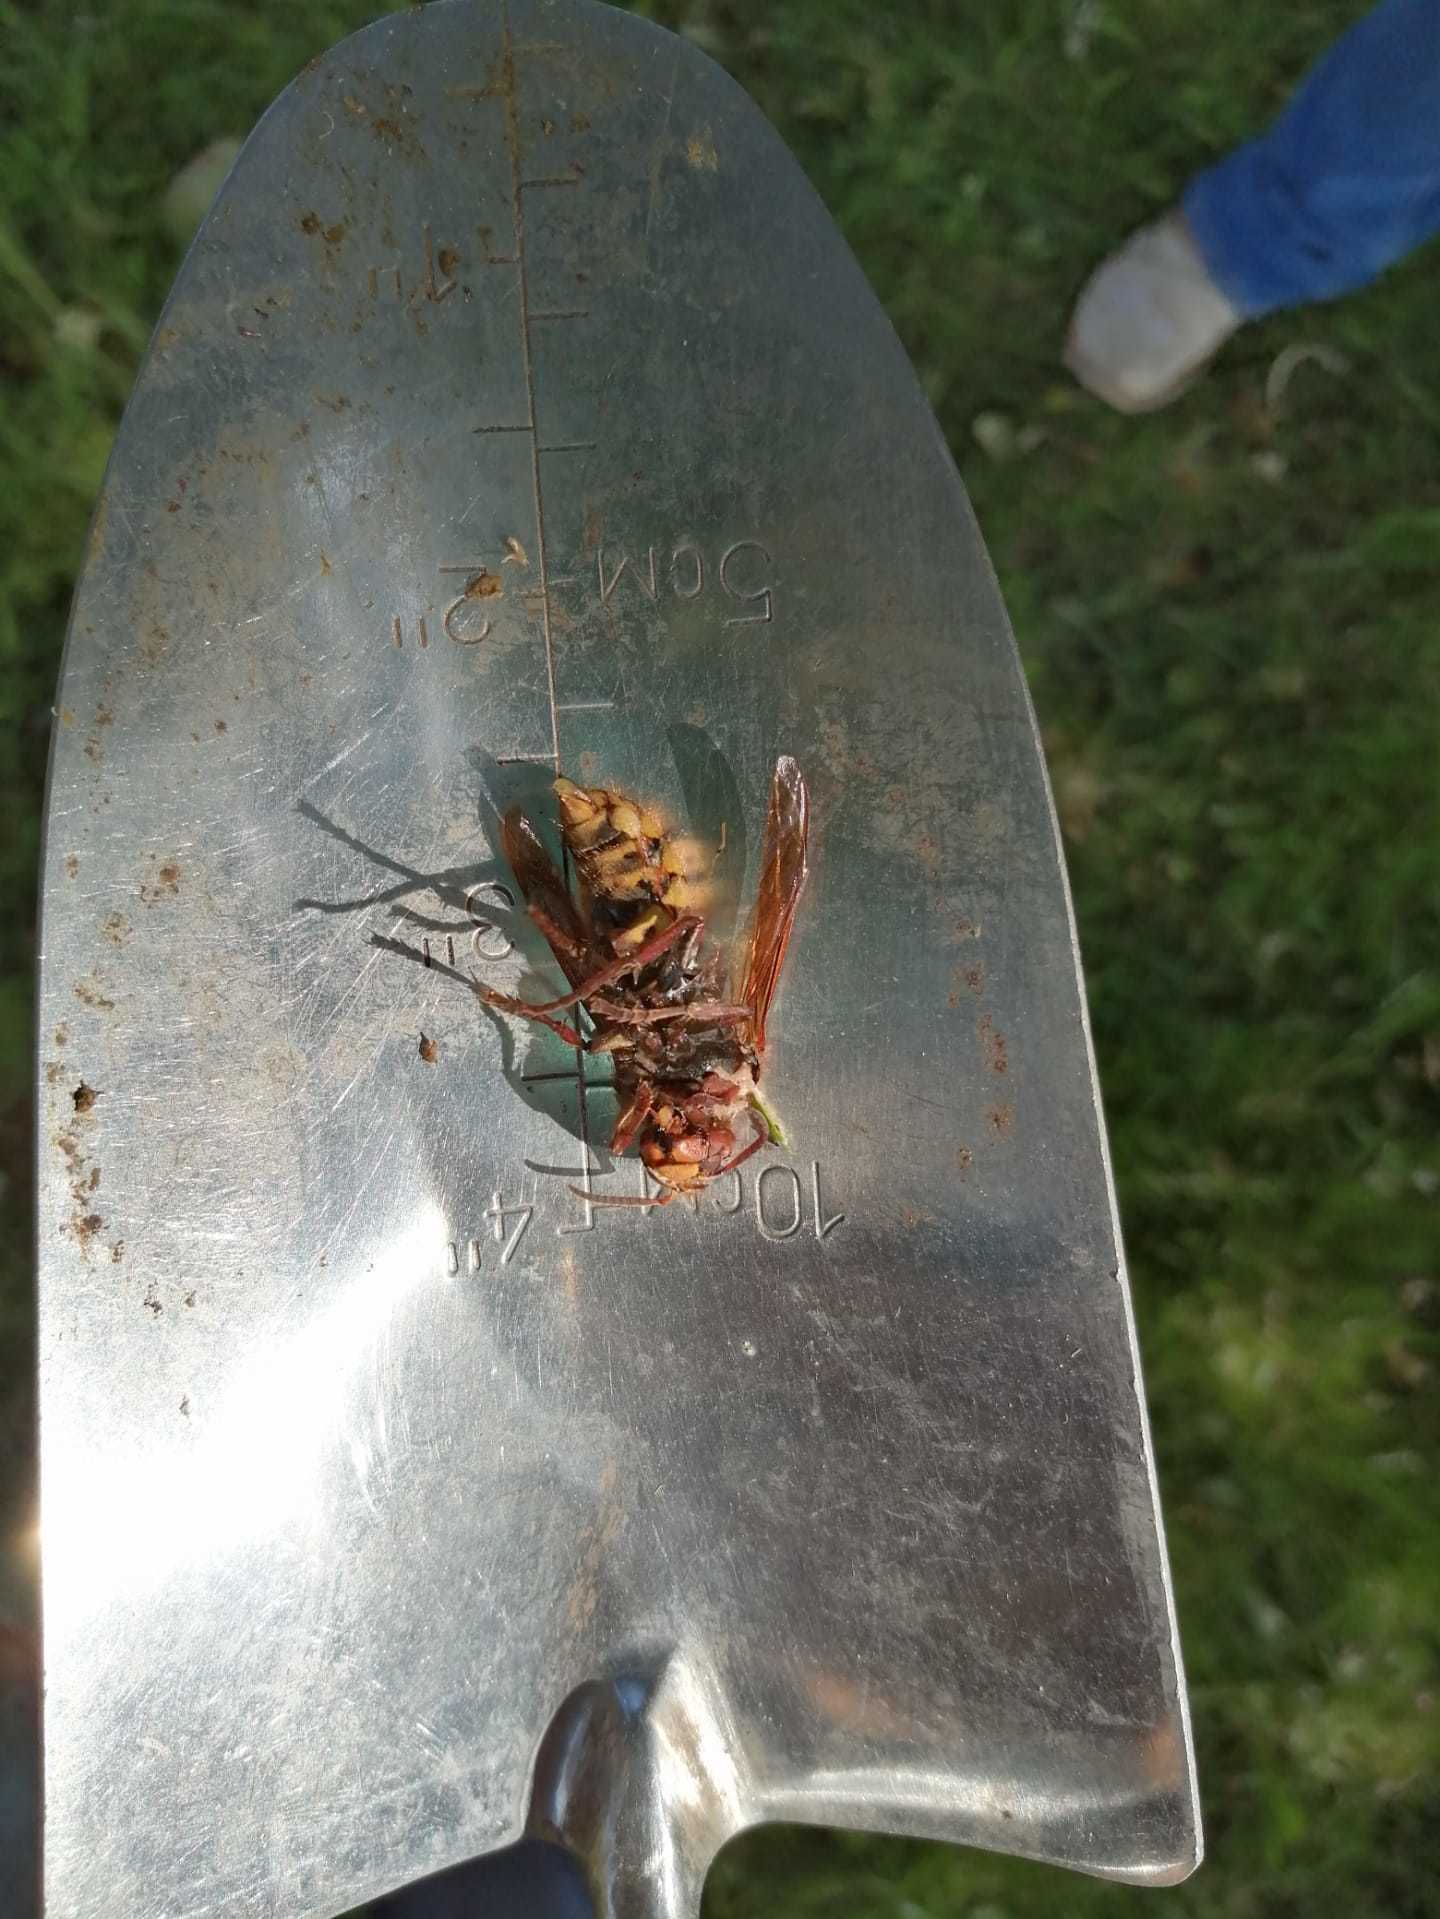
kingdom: Animalia
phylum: Arthropoda
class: Insecta
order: Hymenoptera
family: Vespidae
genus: Vespa
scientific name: Vespa crabro
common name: Hornet
